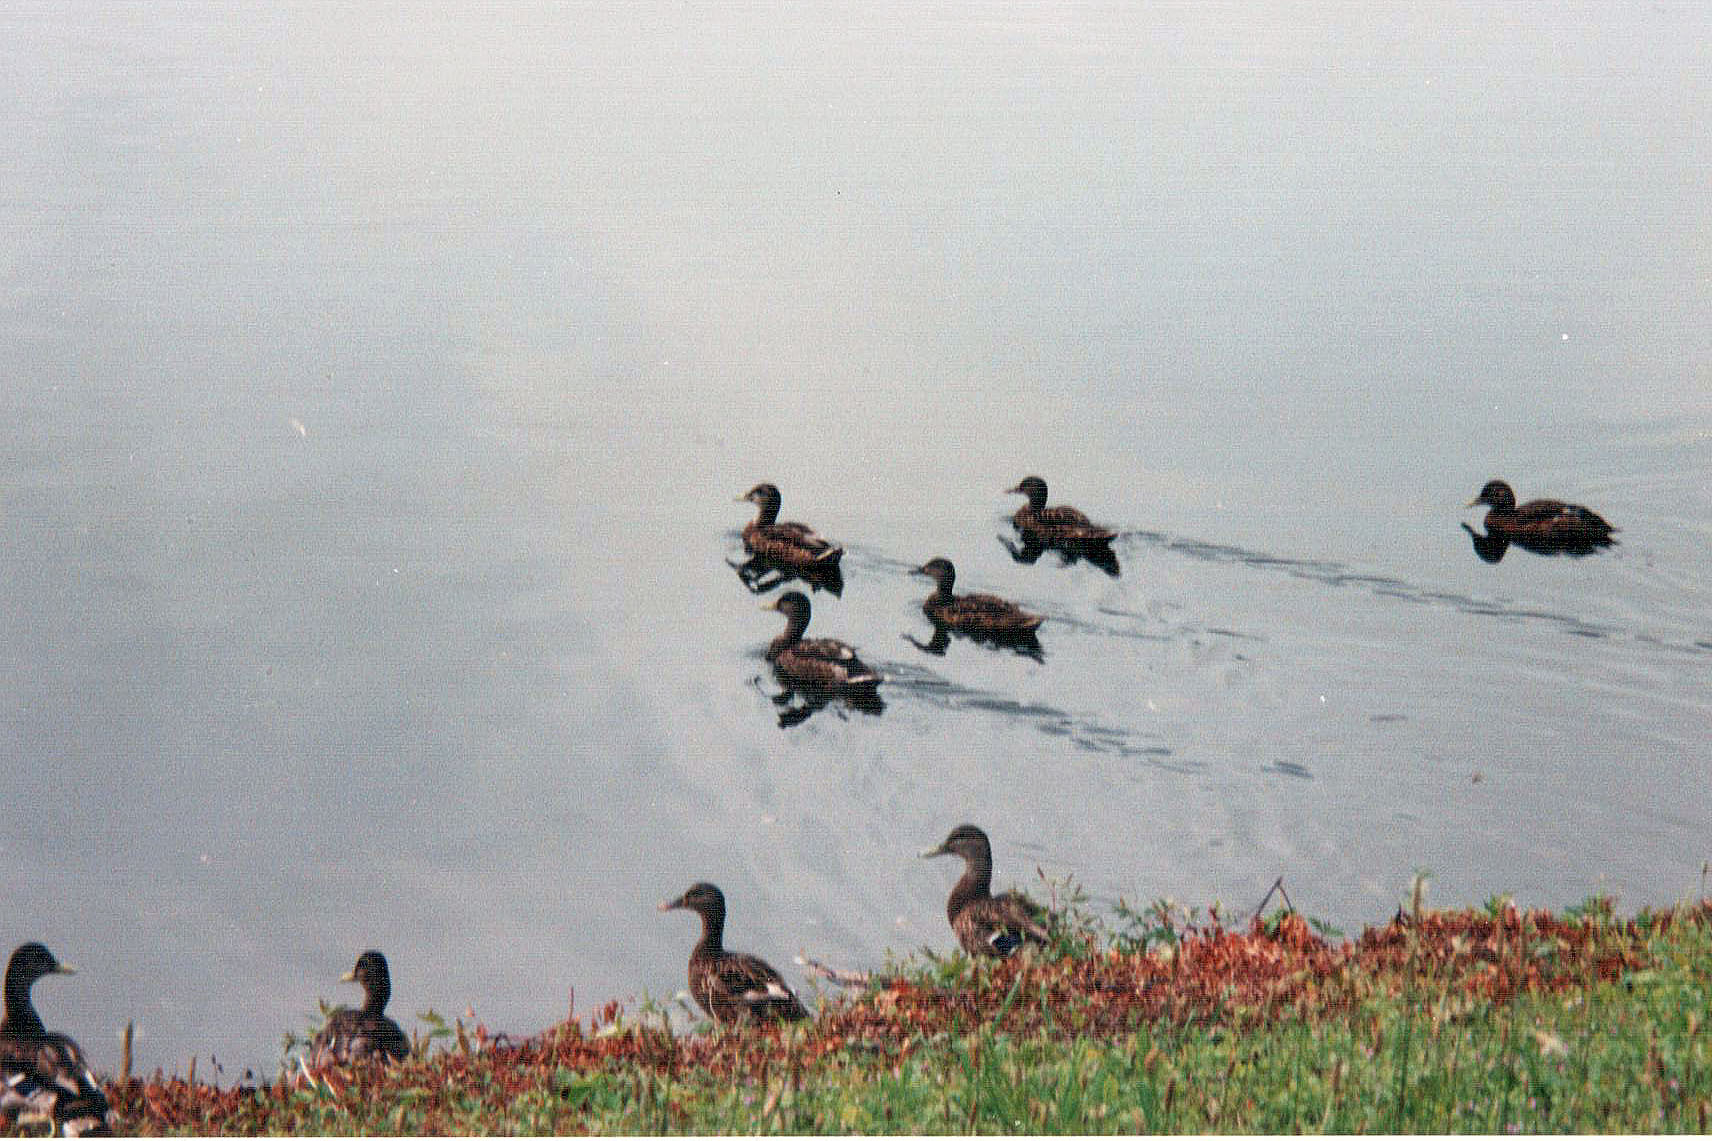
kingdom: Animalia
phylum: Chordata
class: Aves
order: Anseriformes
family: Anatidae
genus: Anas
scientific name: Anas platyrhynchos
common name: Mallard
